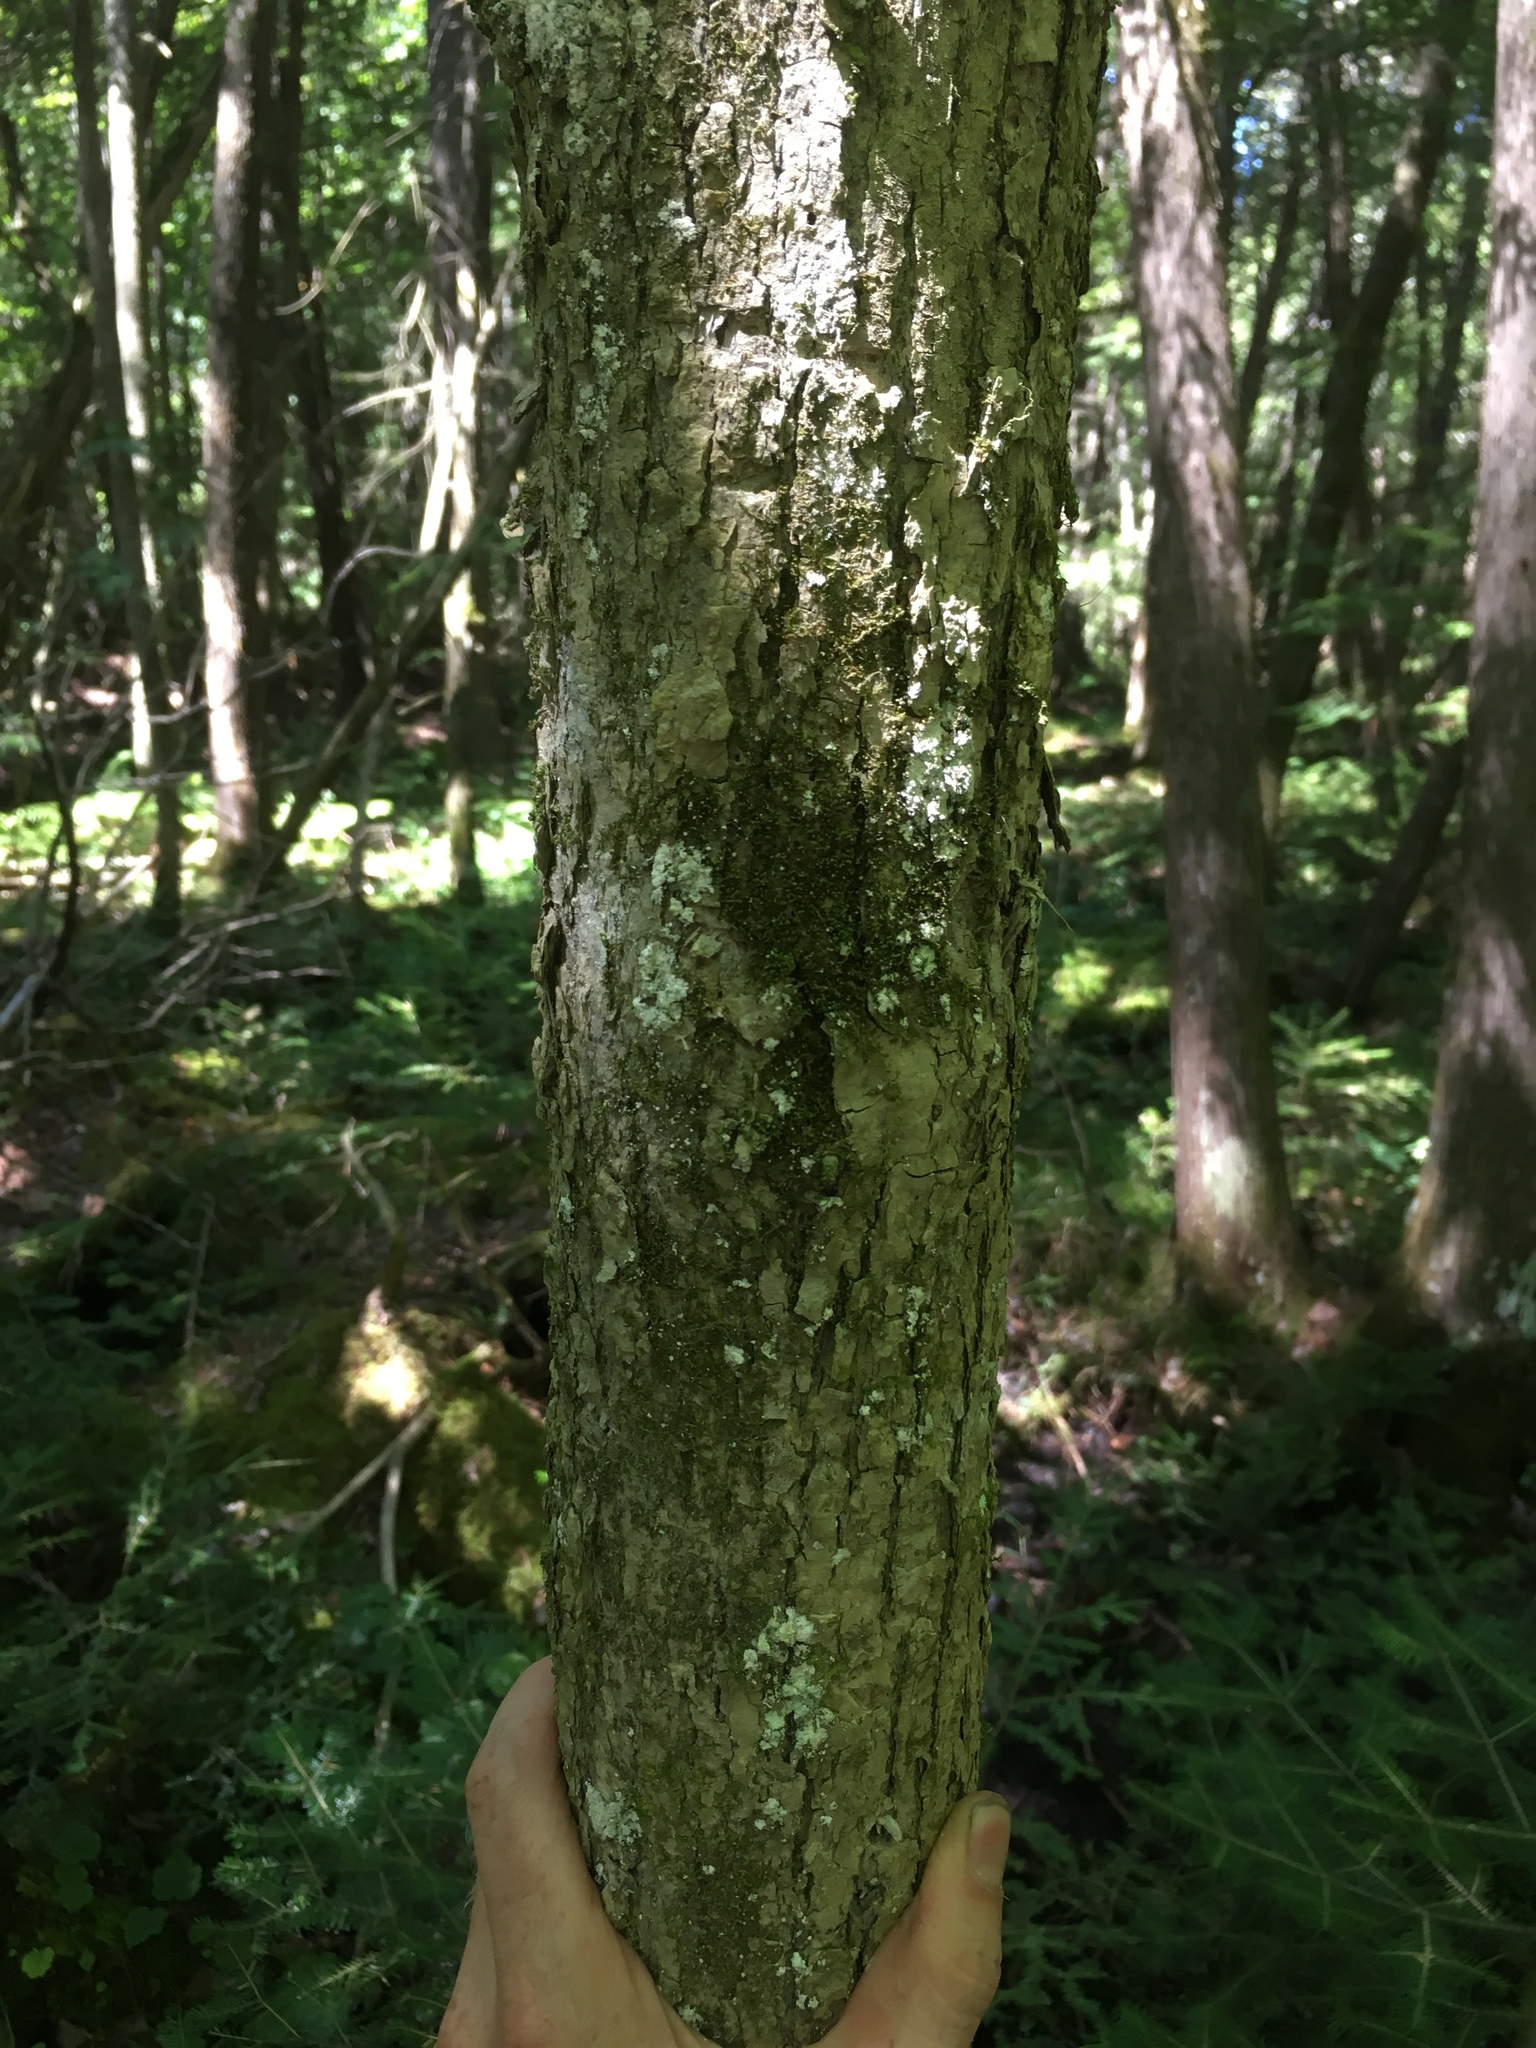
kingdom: Plantae
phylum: Tracheophyta
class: Magnoliopsida
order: Lamiales
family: Oleaceae
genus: Fraxinus
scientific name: Fraxinus nigra
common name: Black ash
